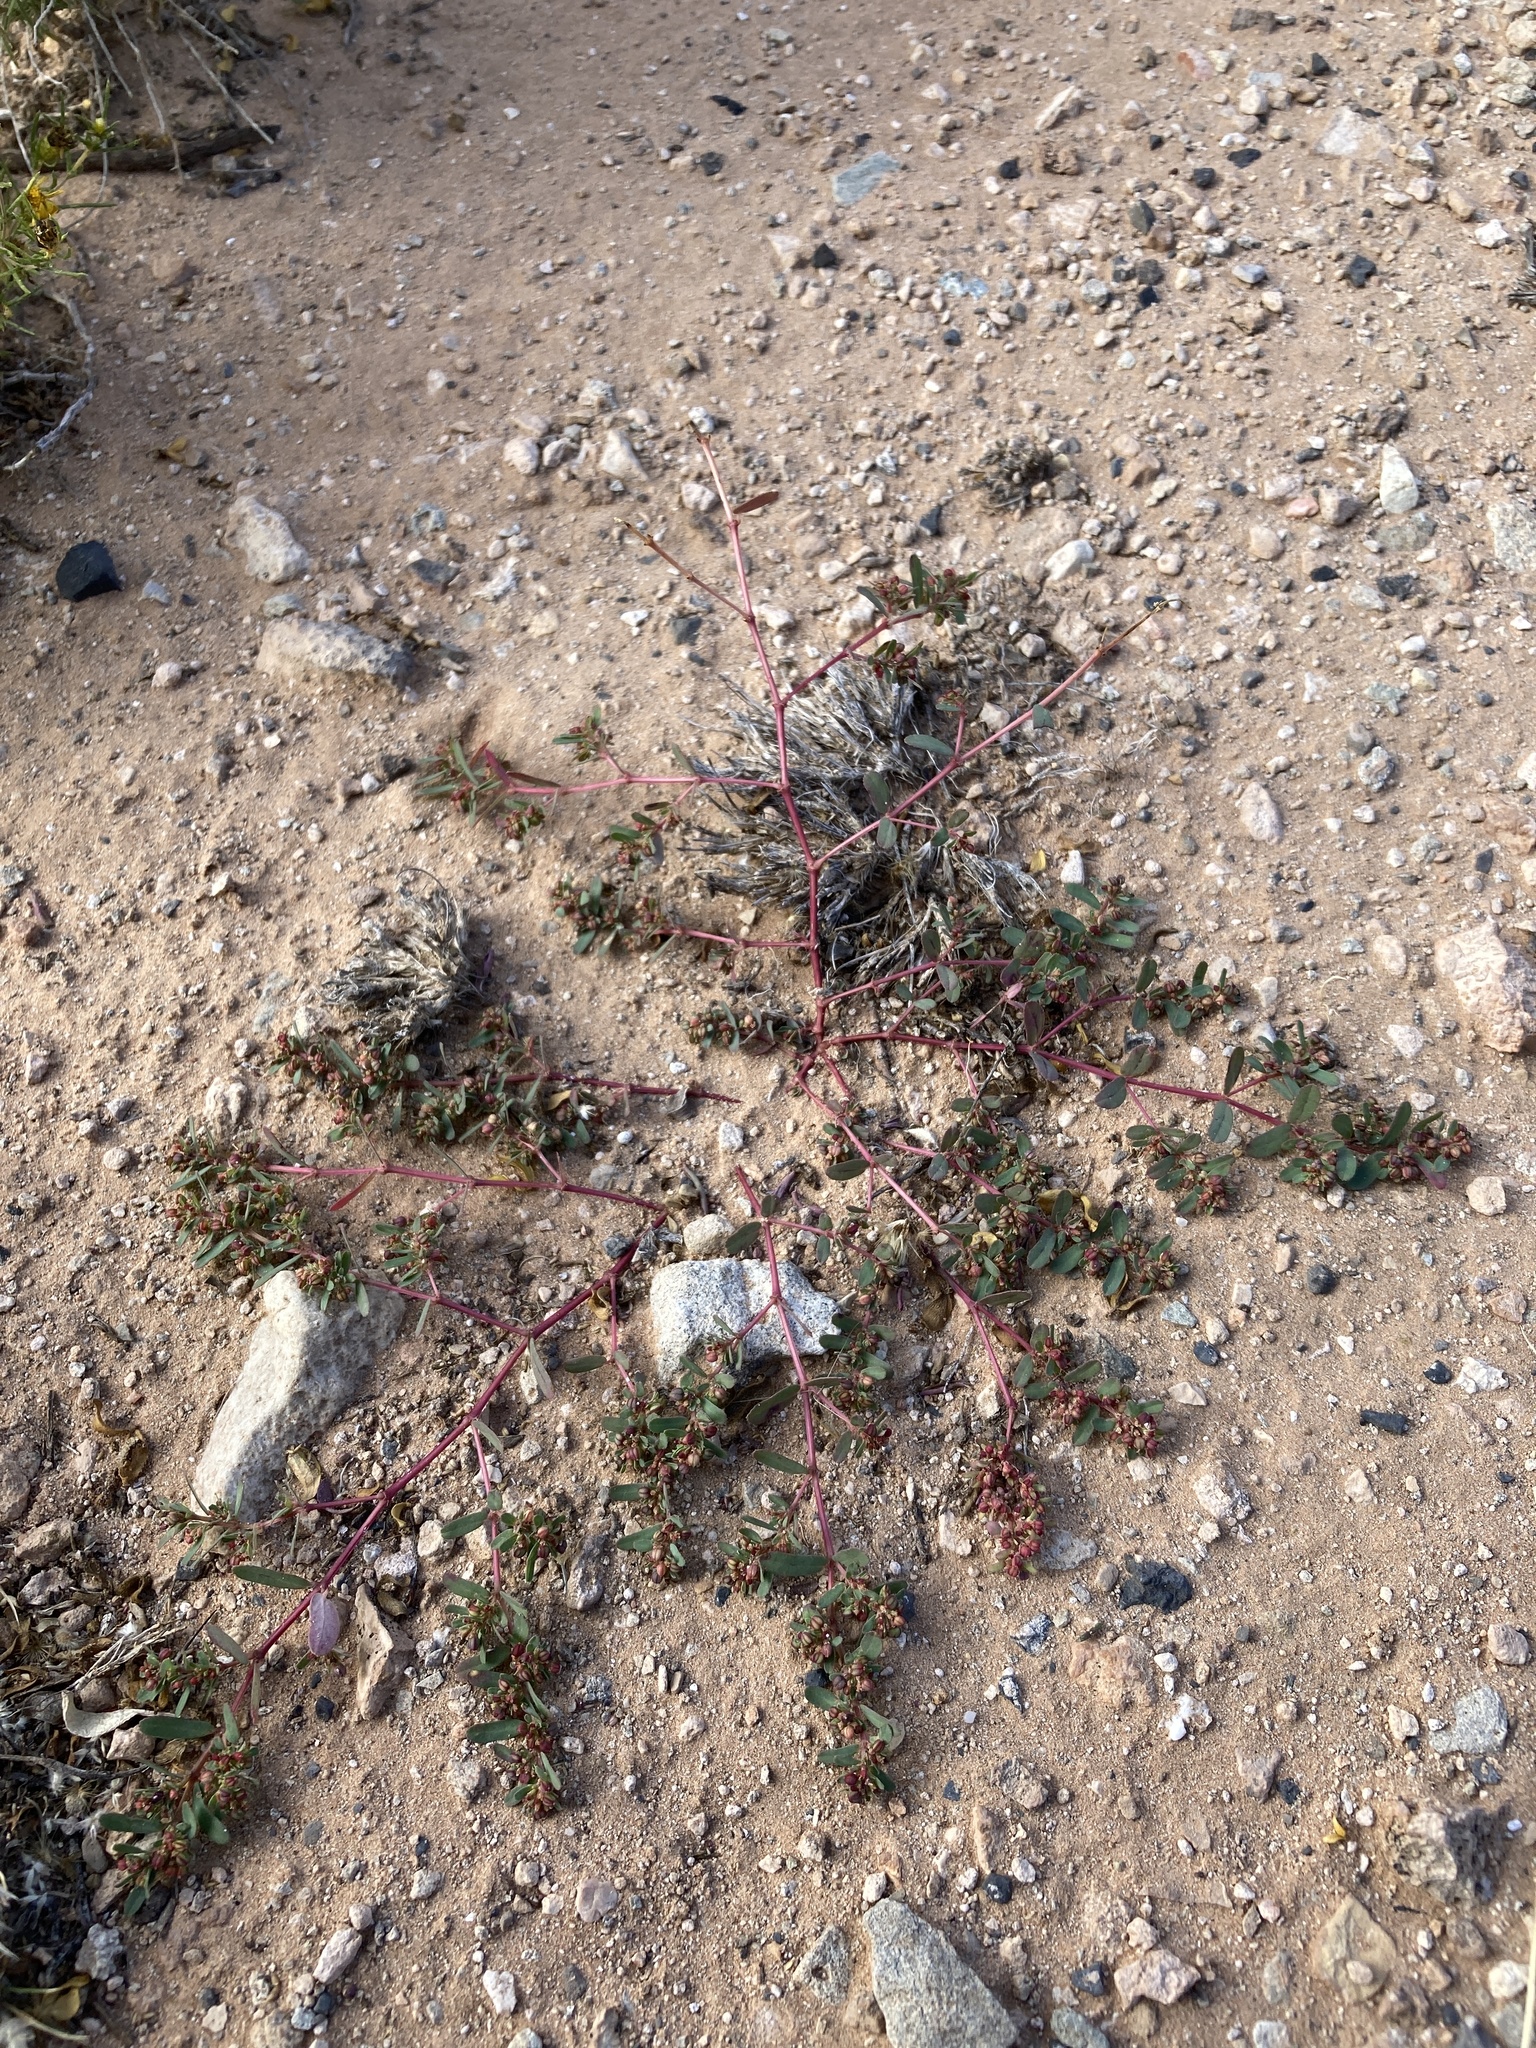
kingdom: Plantae
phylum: Tracheophyta
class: Magnoliopsida
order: Malpighiales
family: Euphorbiaceae
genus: Euphorbia
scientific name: Euphorbia serpillifolia
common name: Thyme-leaf spurge
